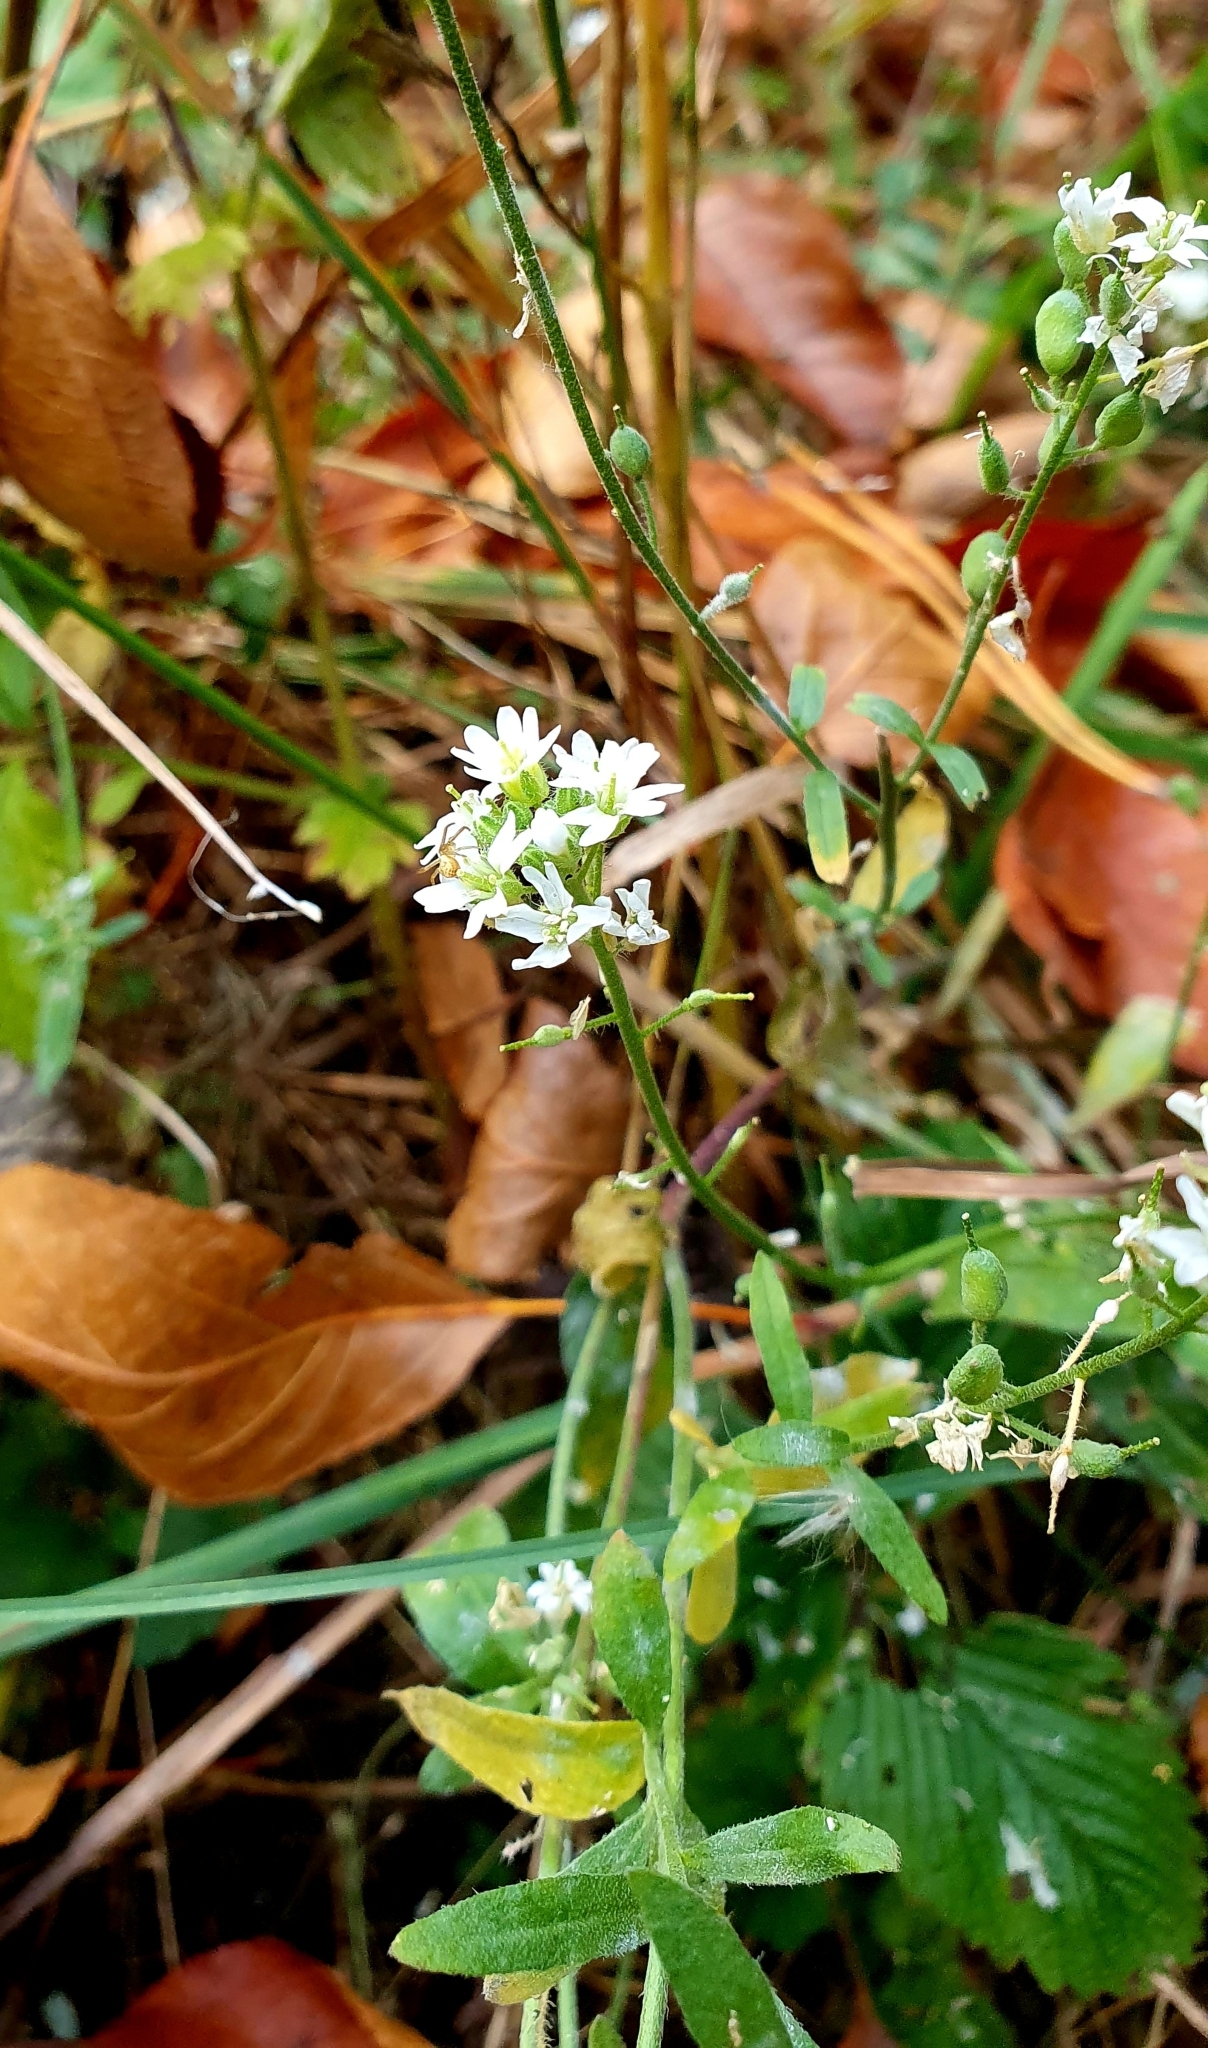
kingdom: Plantae
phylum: Tracheophyta
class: Magnoliopsida
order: Brassicales
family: Brassicaceae
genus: Berteroa
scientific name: Berteroa incana
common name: Hoary alison
